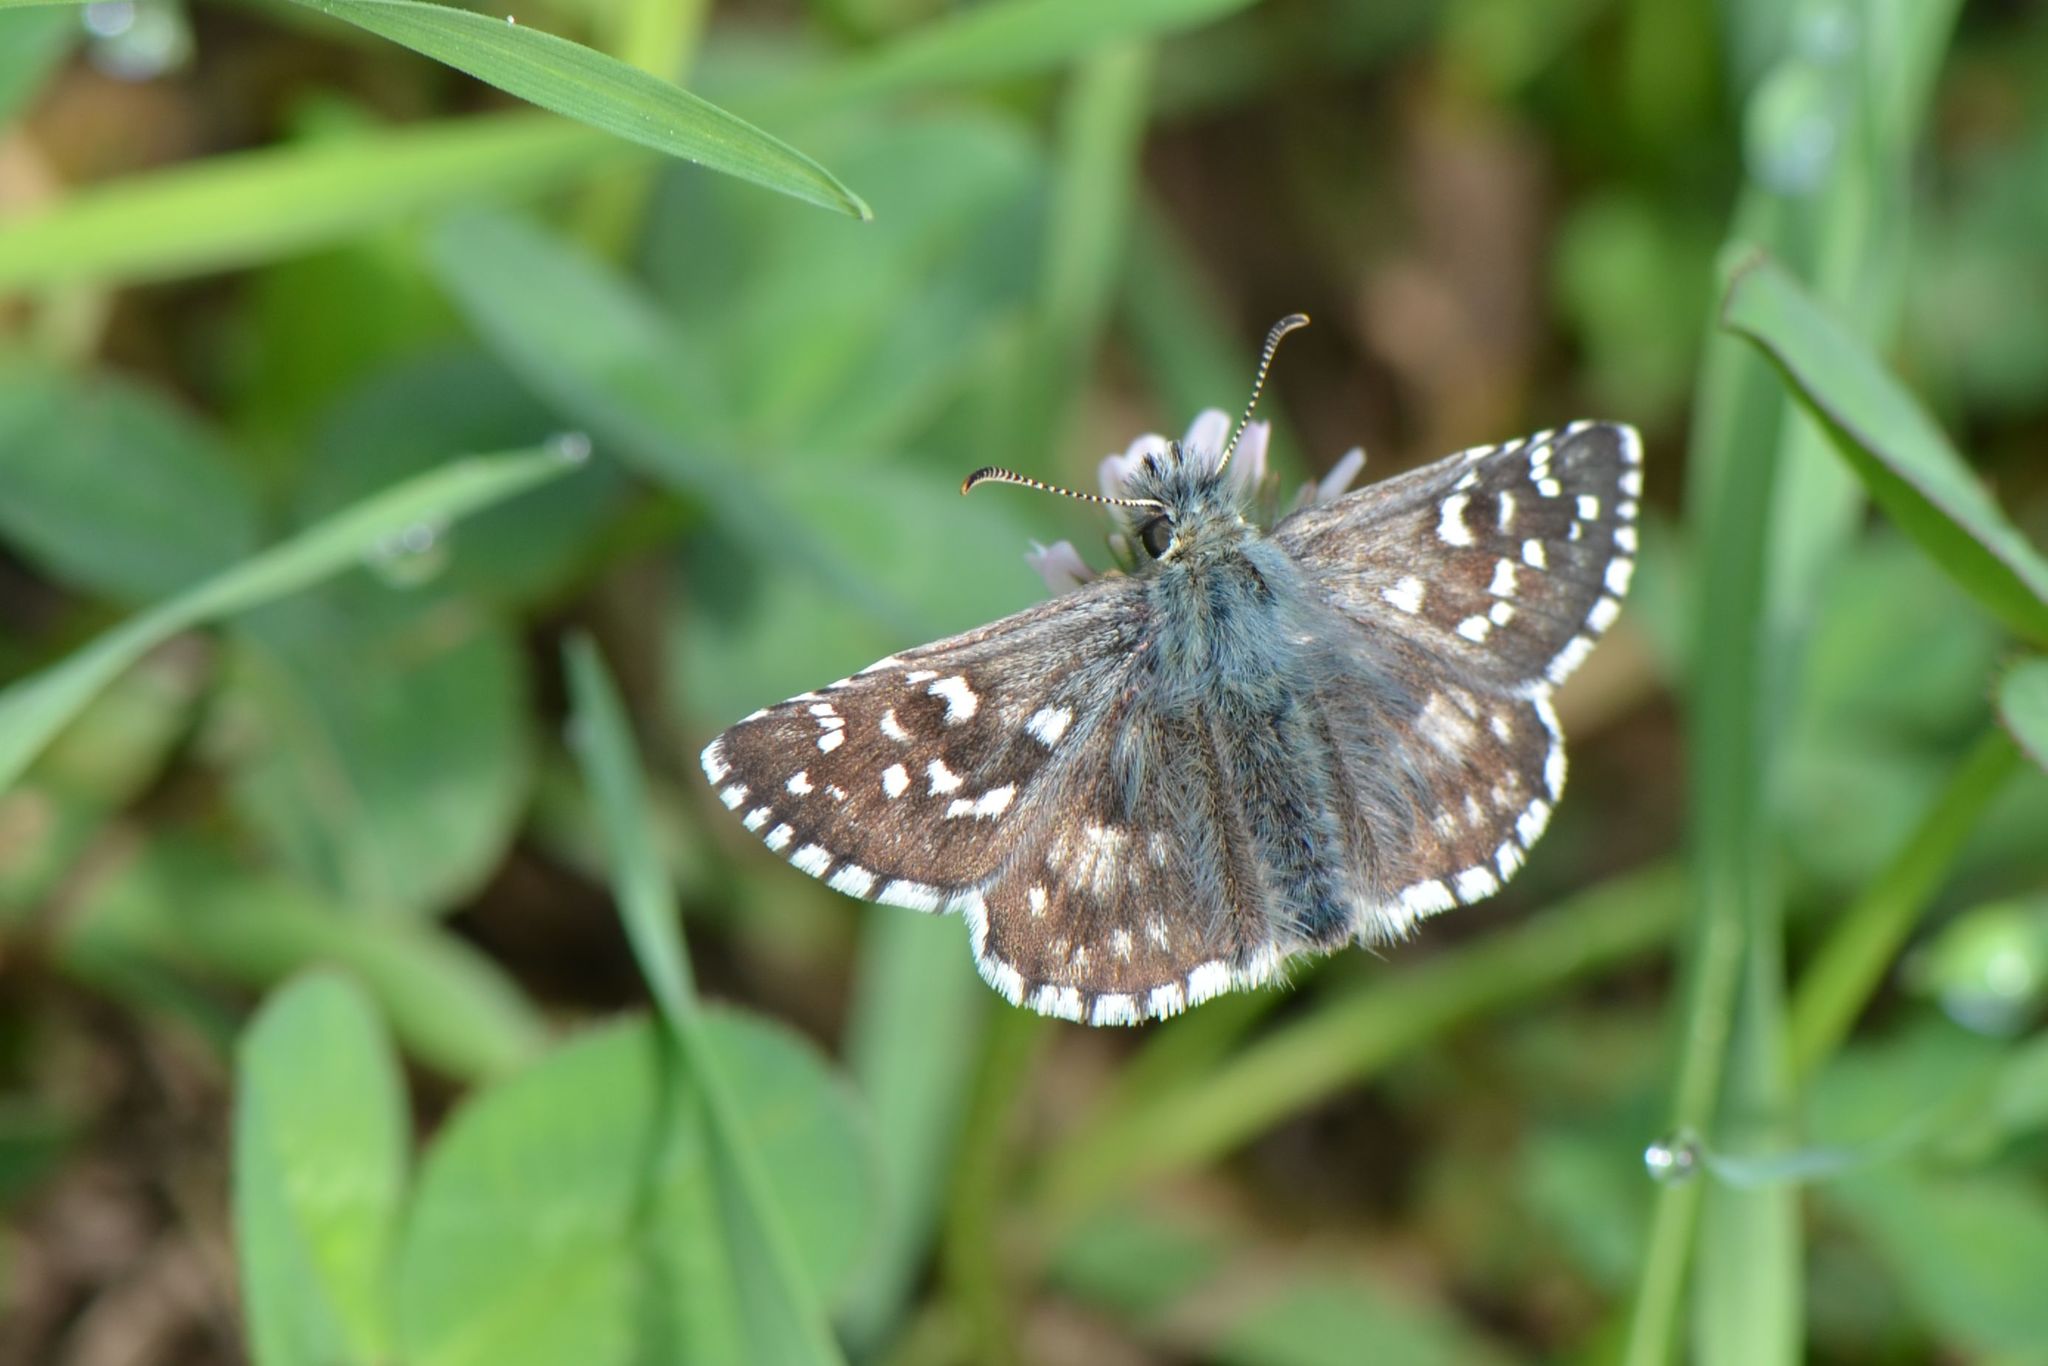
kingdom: Animalia
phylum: Arthropoda
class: Insecta
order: Lepidoptera
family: Hesperiidae
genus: Pyrgus
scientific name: Pyrgus armoricanus
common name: Oberthür's grizzled skipper
